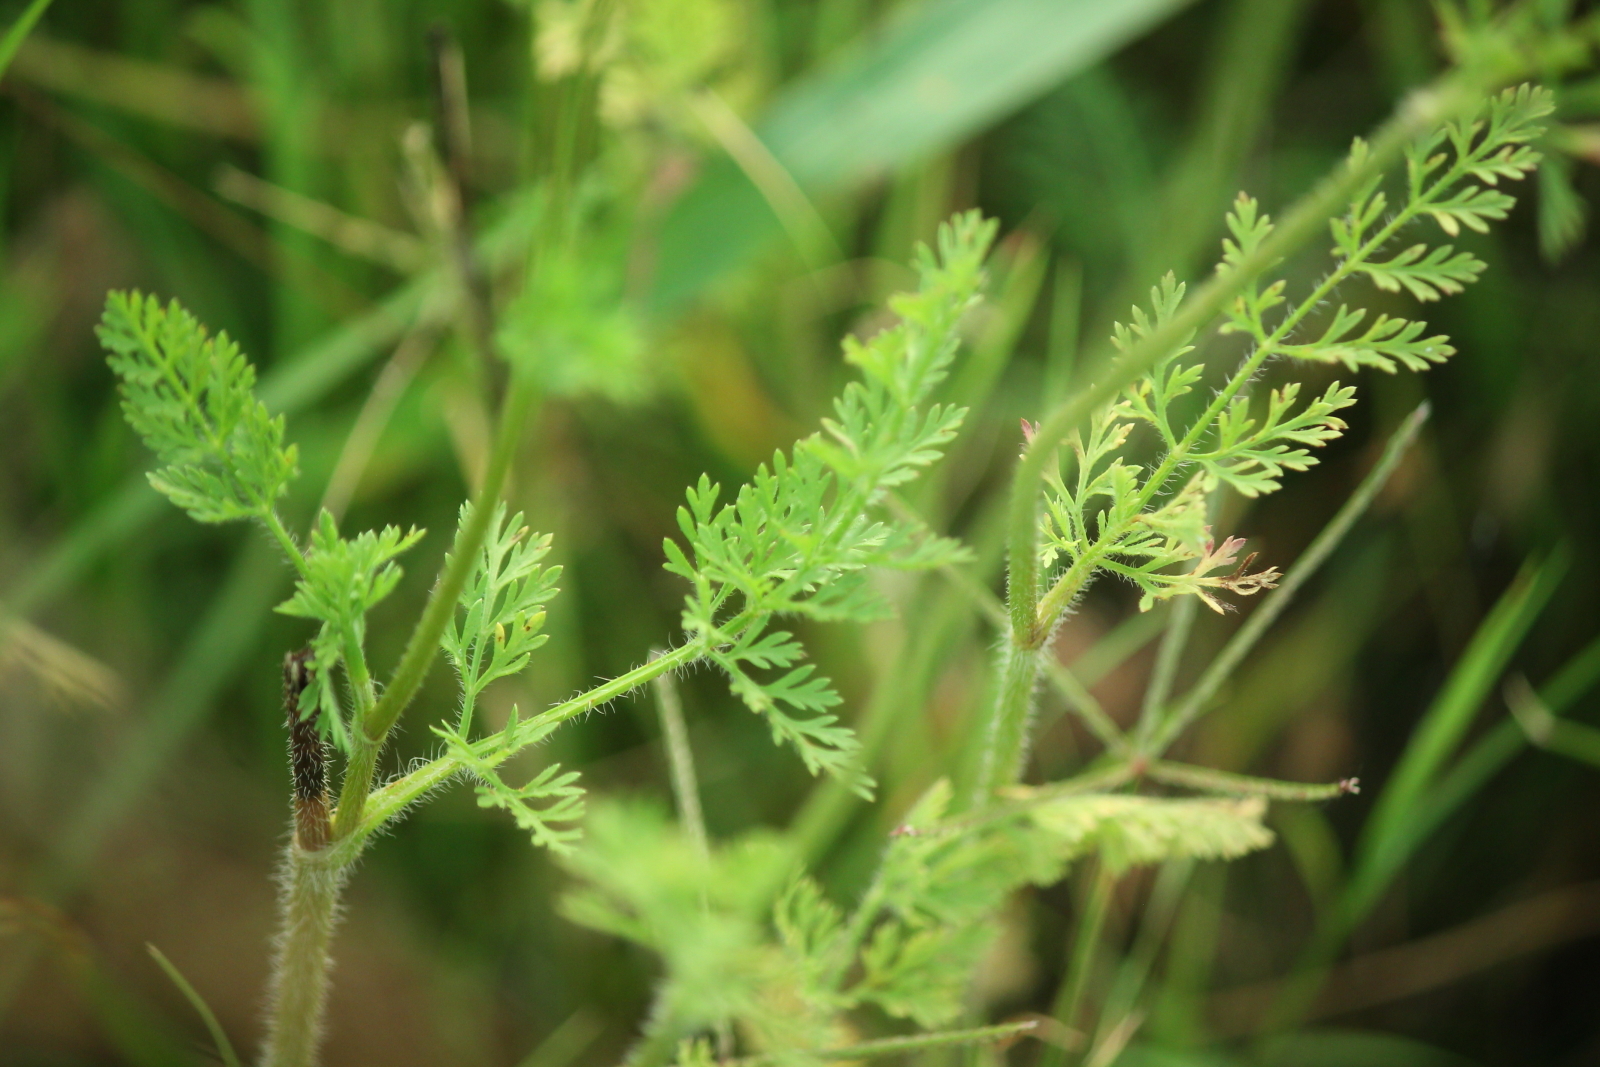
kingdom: Plantae
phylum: Tracheophyta
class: Magnoliopsida
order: Apiales
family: Apiaceae
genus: Daucus
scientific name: Daucus pusillus
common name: Southwest wild carrot
